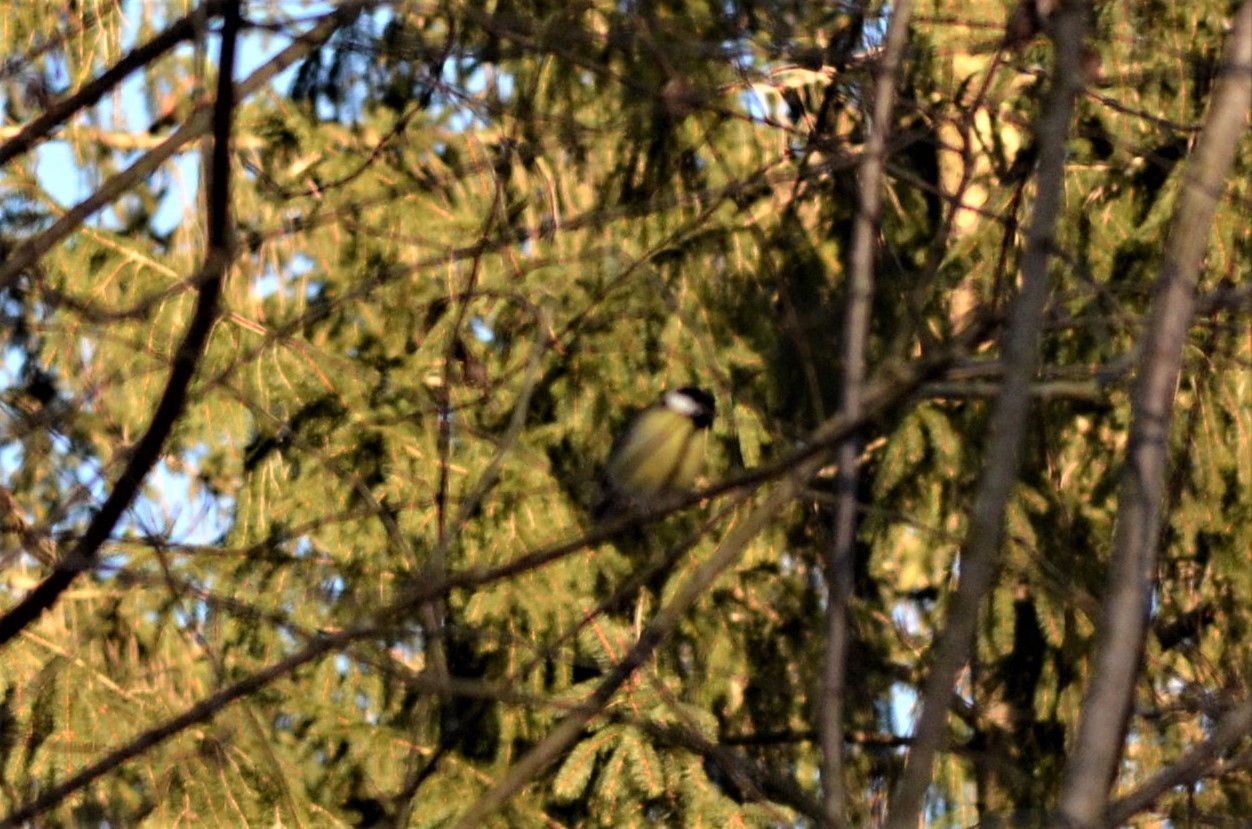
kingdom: Animalia
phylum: Chordata
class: Aves
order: Passeriformes
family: Paridae
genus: Parus
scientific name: Parus major
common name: Great tit
